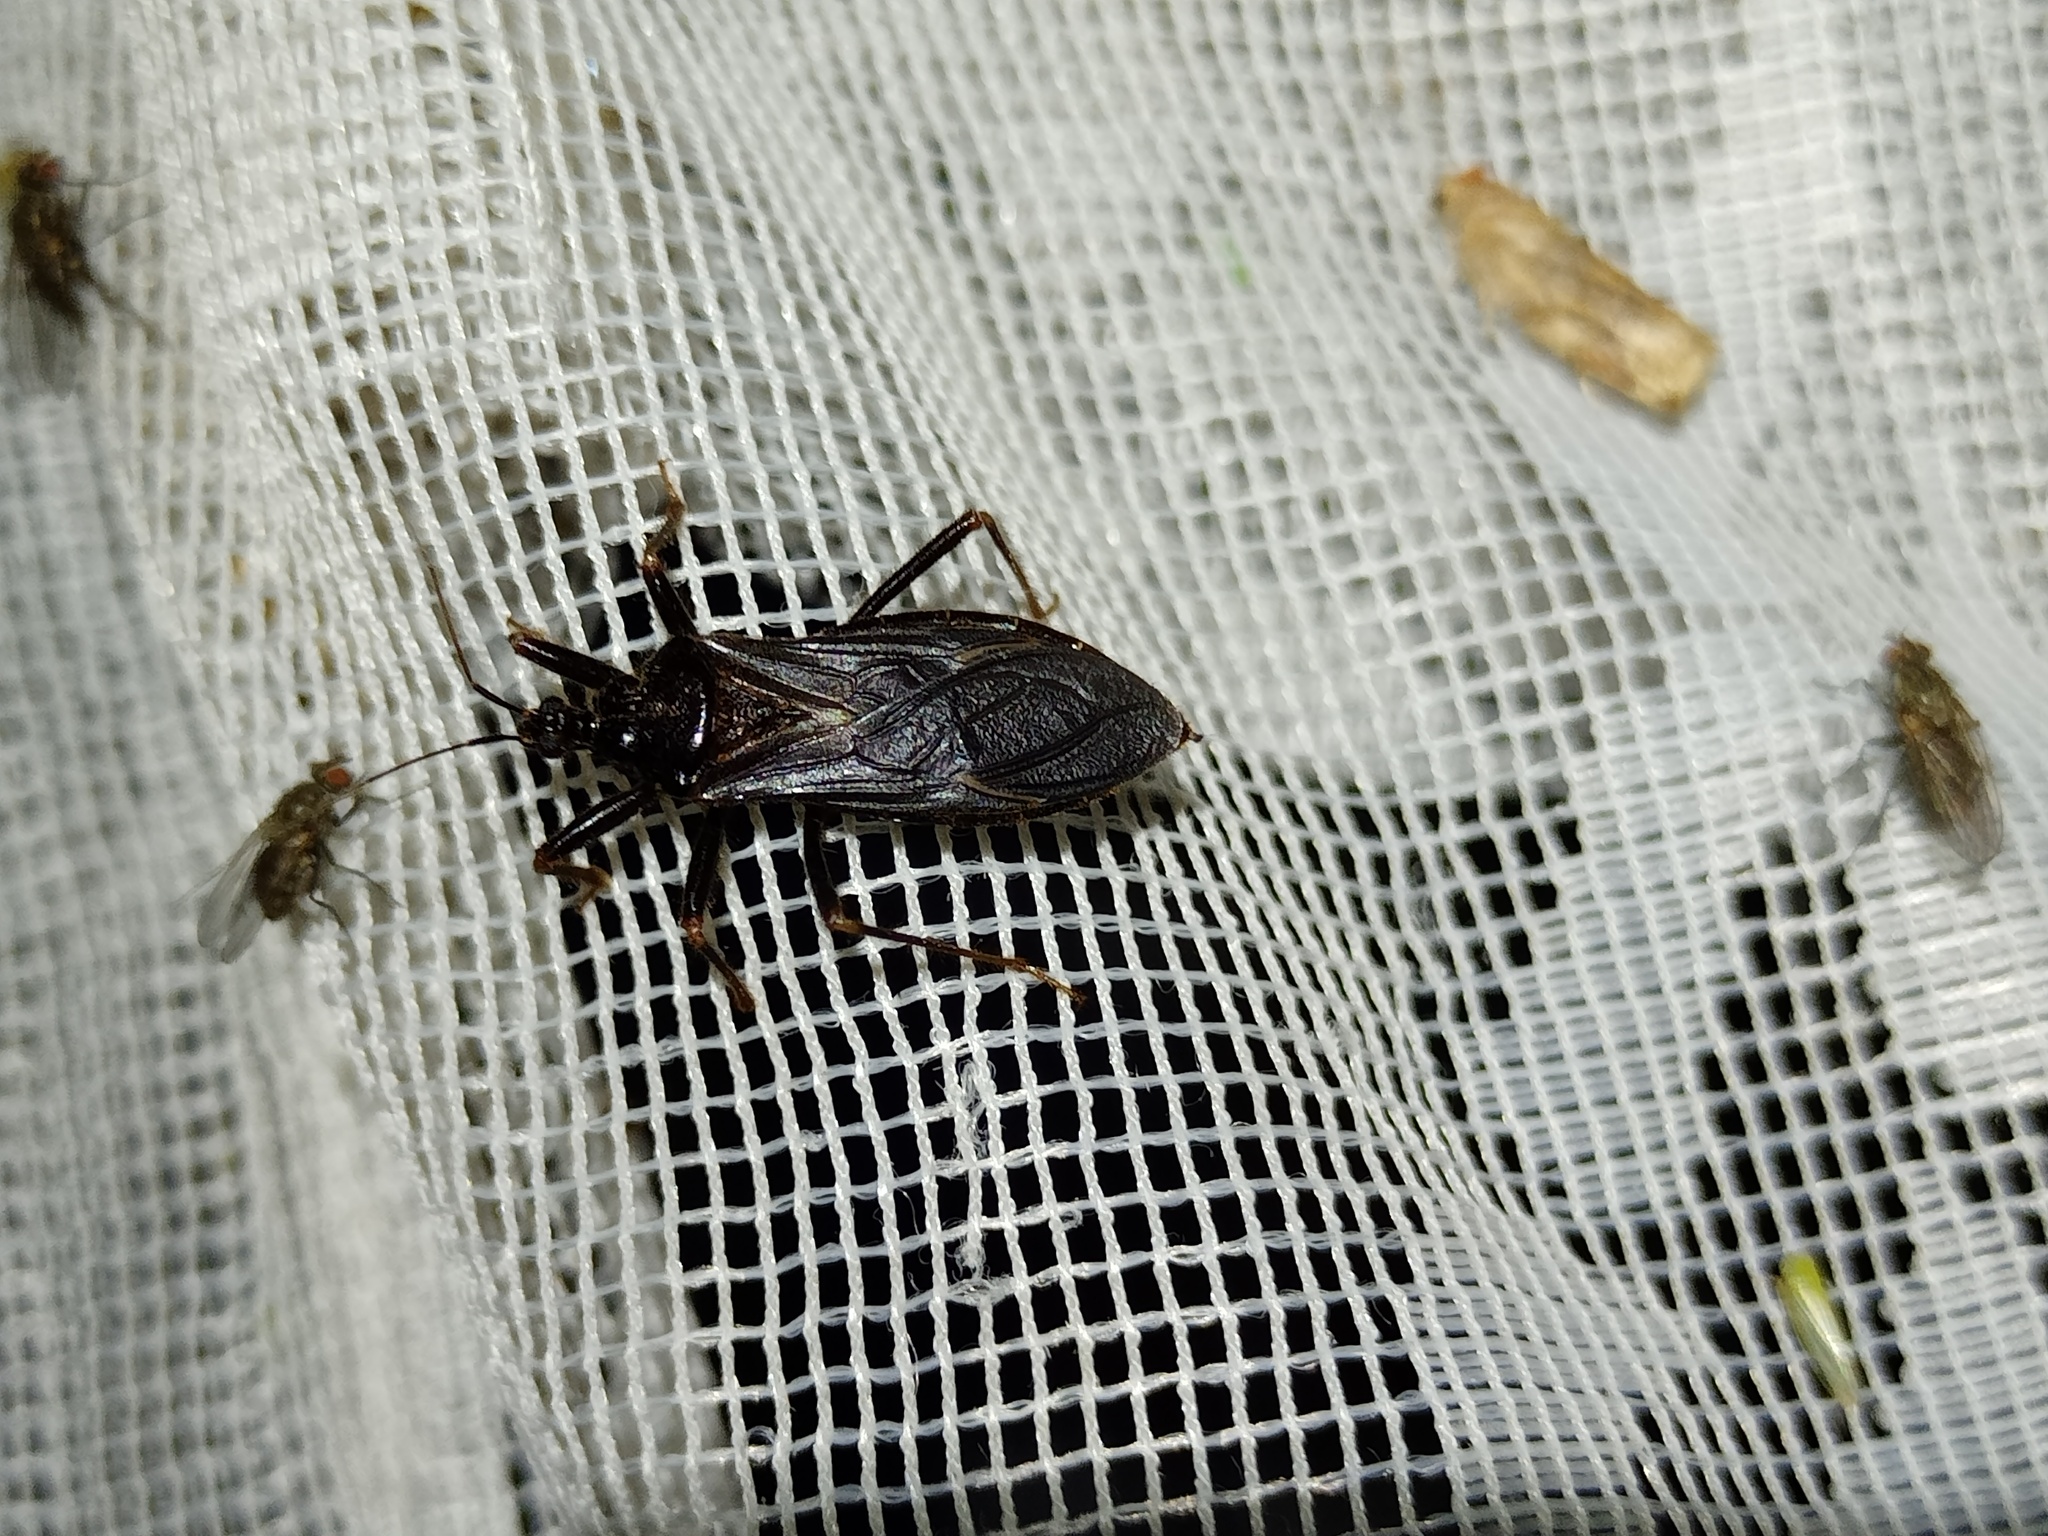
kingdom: Animalia
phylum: Arthropoda
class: Insecta
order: Hemiptera
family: Reduviidae
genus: Reduvius
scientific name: Reduvius personatus
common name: Masked hunter
